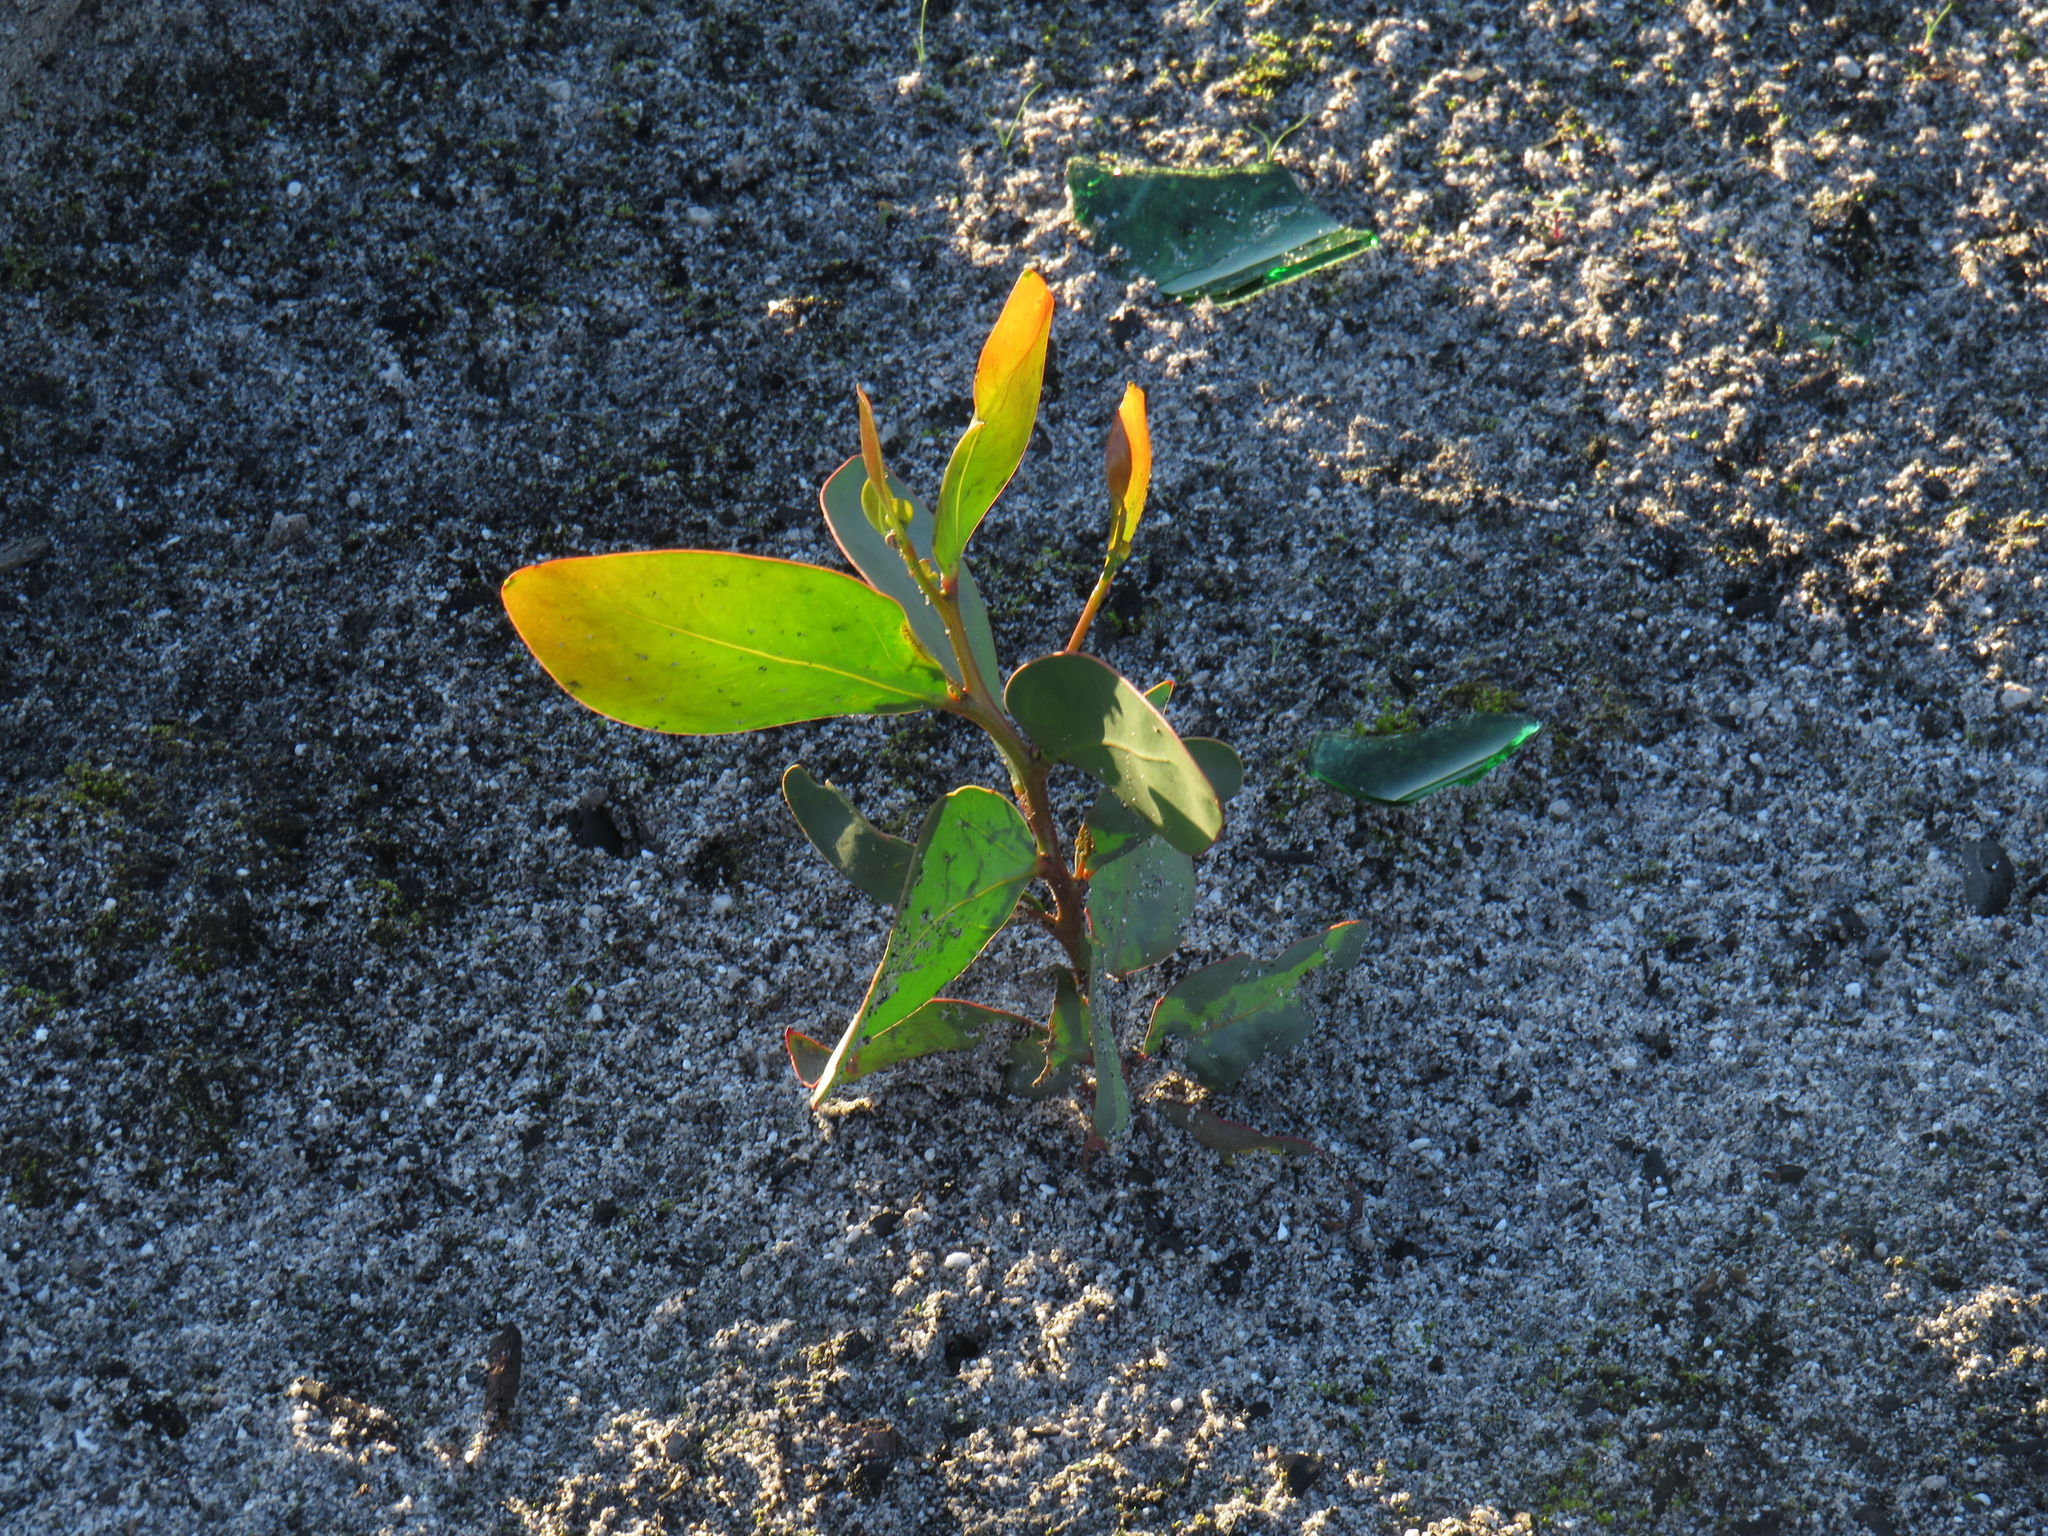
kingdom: Plantae
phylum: Tracheophyta
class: Magnoliopsida
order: Fabales
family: Fabaceae
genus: Acacia
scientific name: Acacia pycnantha
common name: Golden wattle
